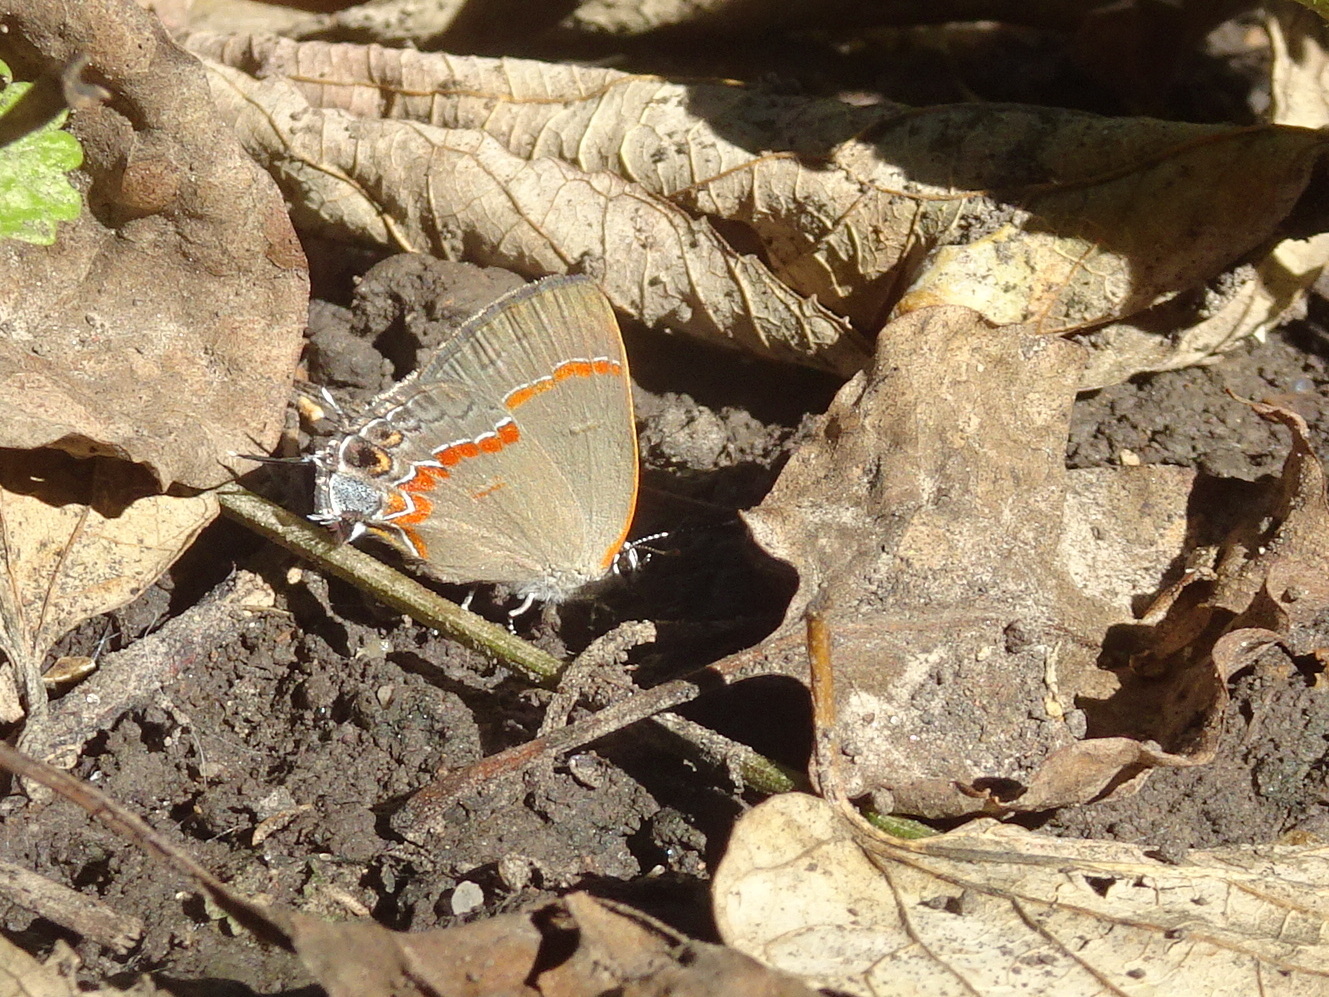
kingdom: Animalia
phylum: Arthropoda
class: Insecta
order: Lepidoptera
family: Lycaenidae
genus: Calycopis
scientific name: Calycopis cecrops
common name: Red-banded hairstreak
